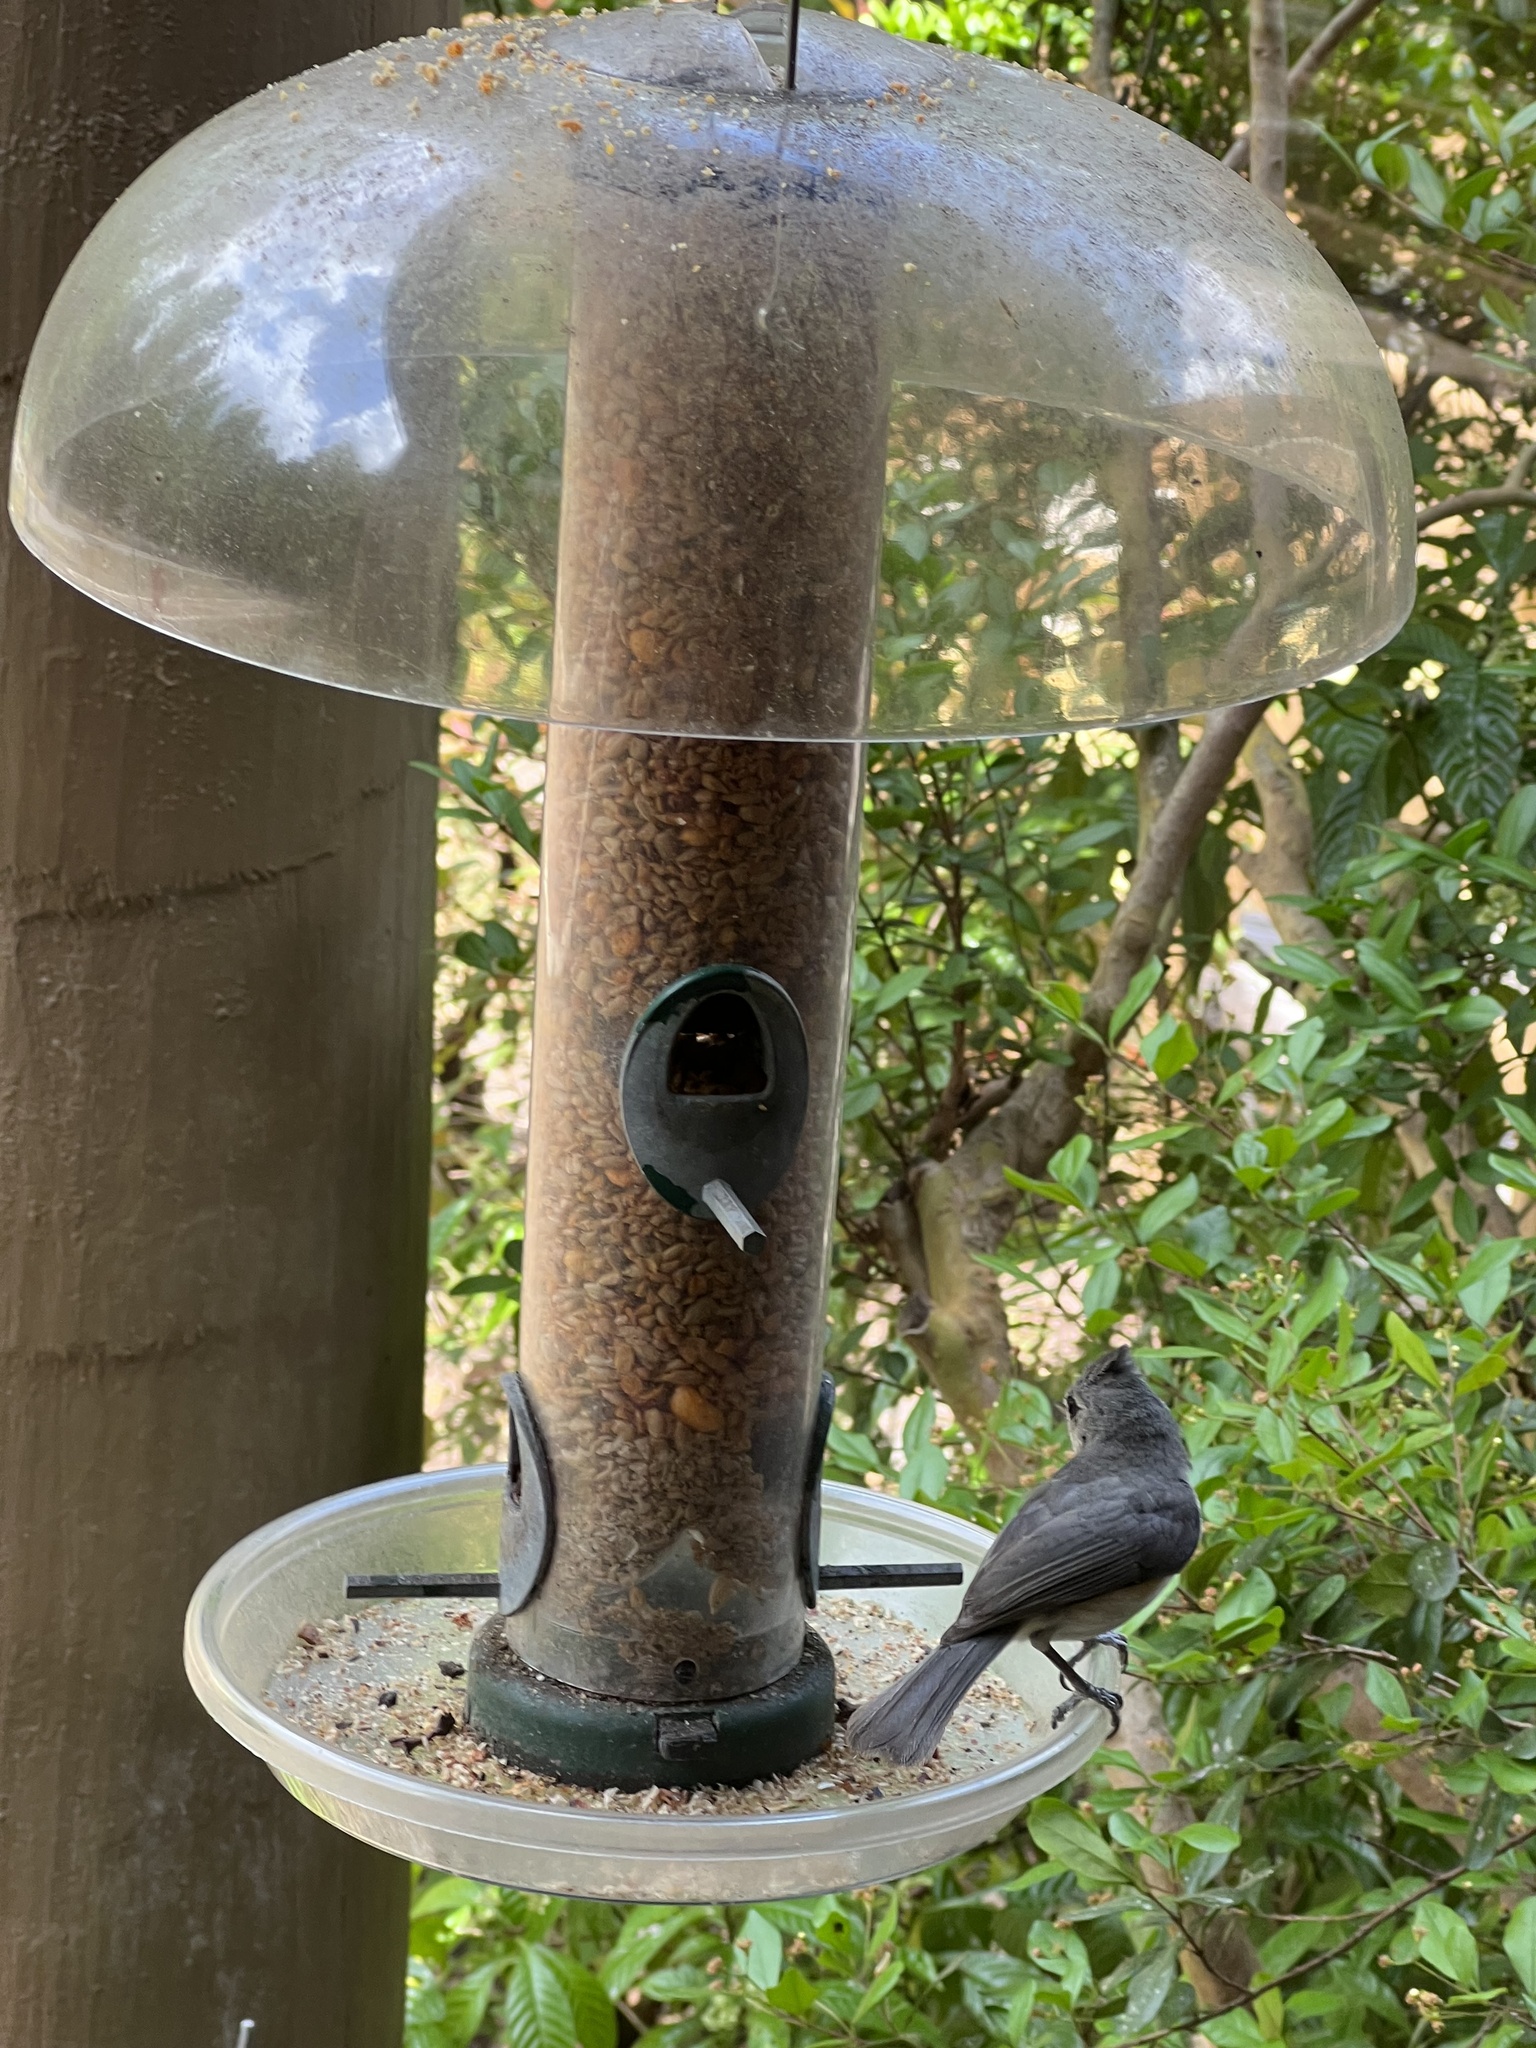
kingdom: Animalia
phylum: Chordata
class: Aves
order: Passeriformes
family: Paridae
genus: Baeolophus
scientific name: Baeolophus bicolor
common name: Tufted titmouse
